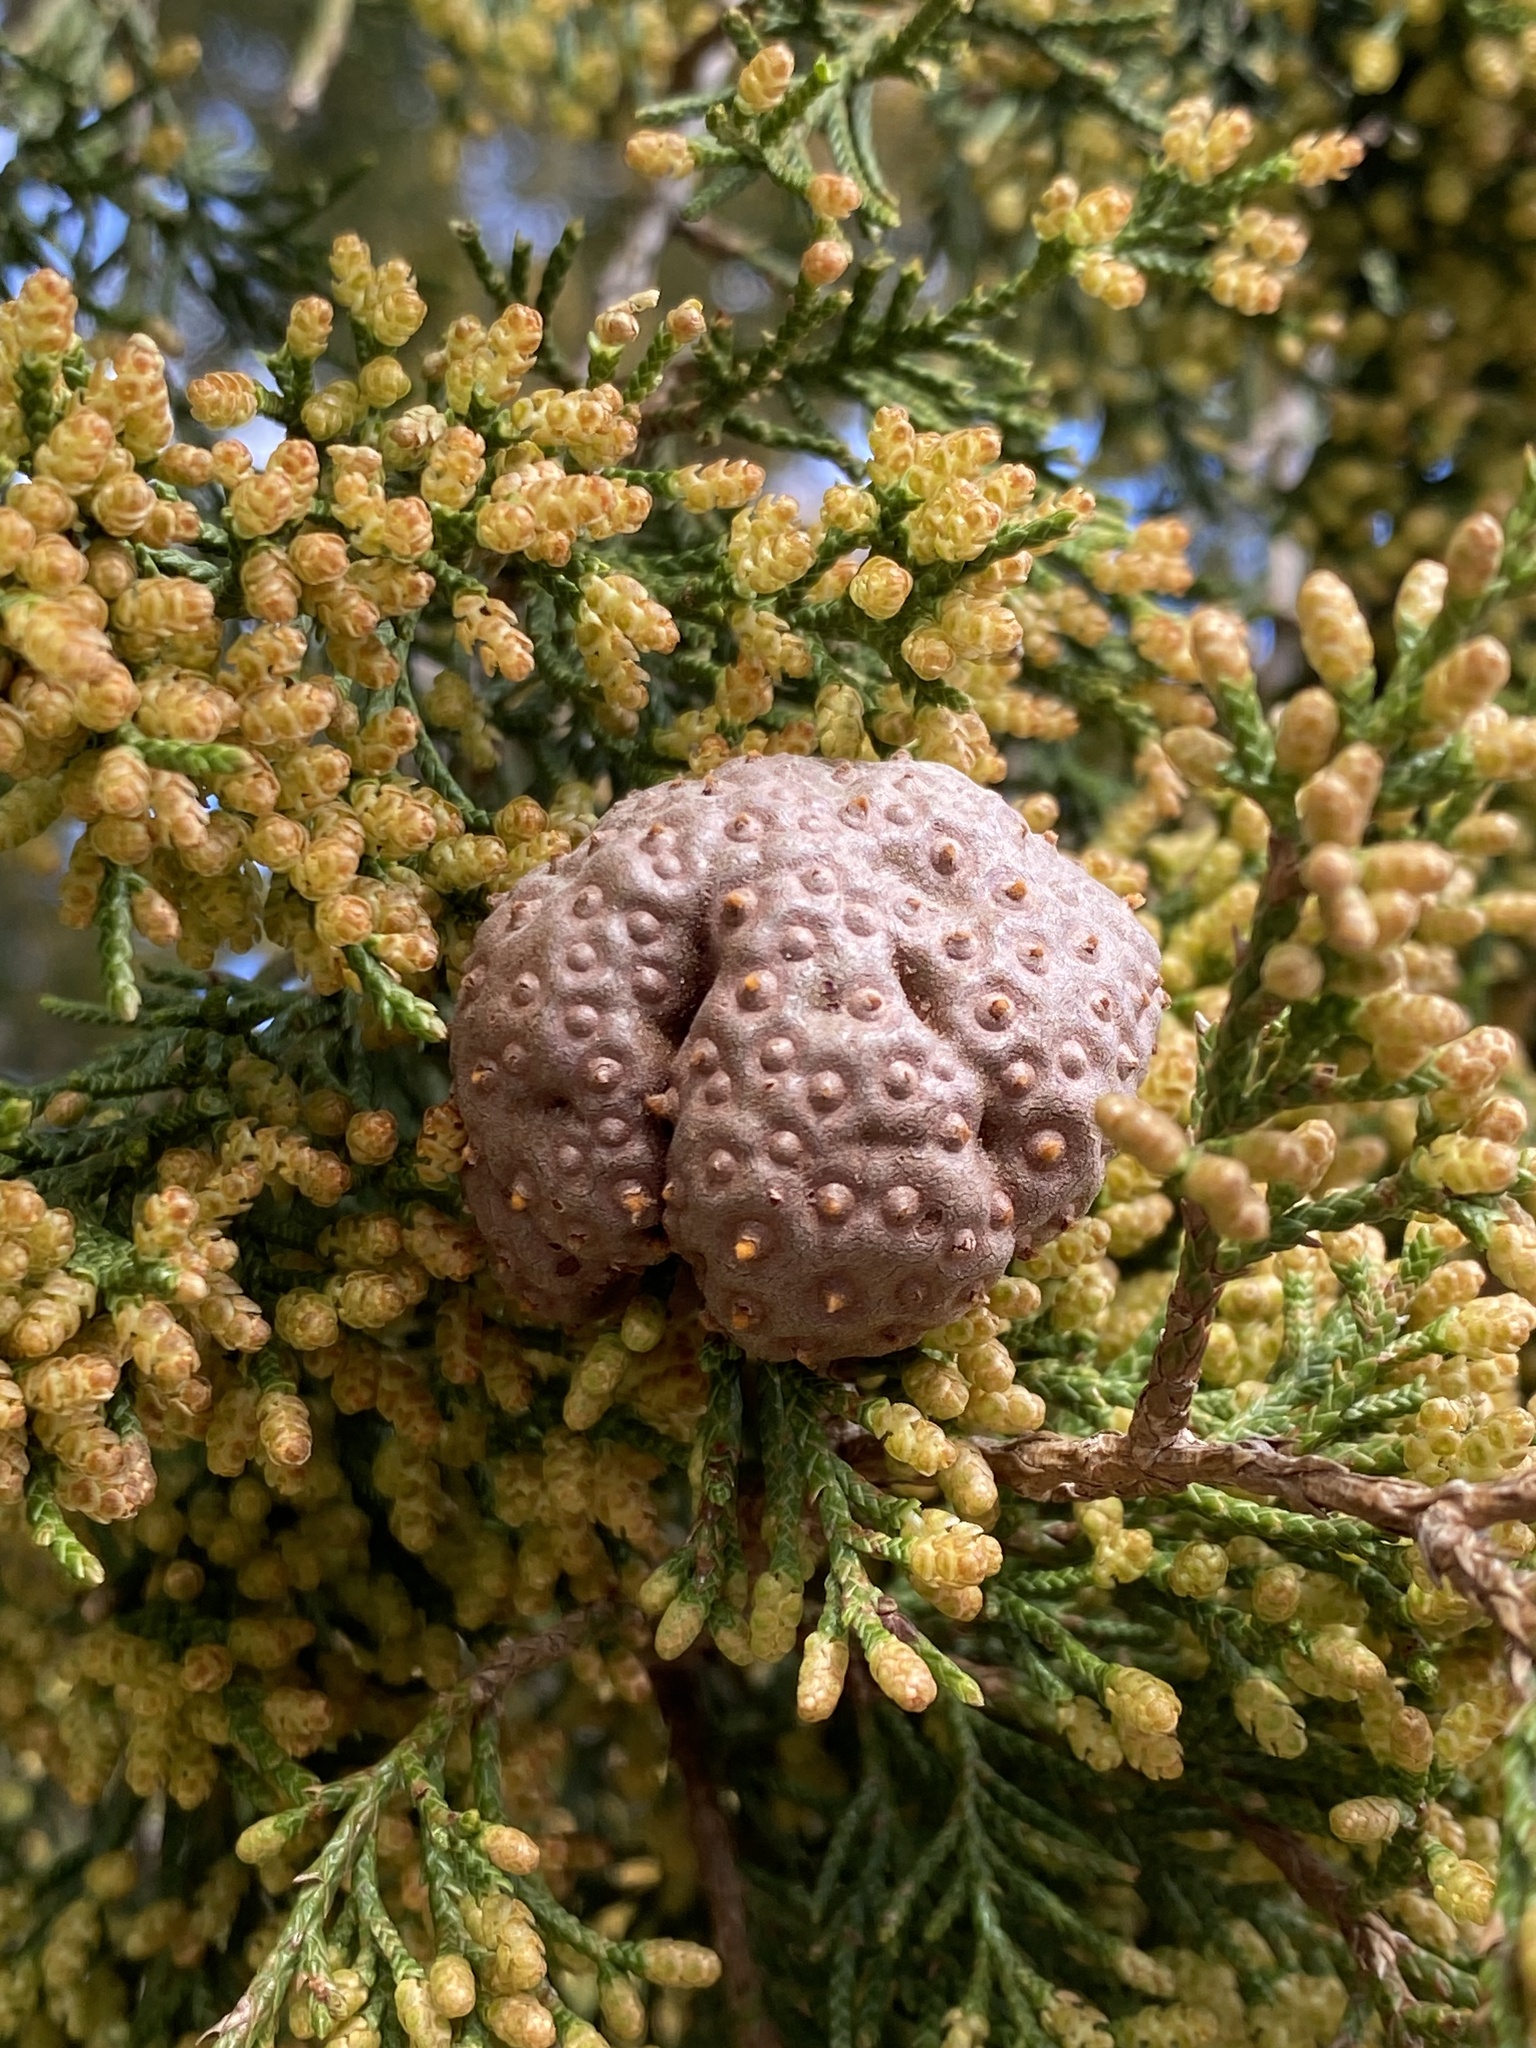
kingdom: Fungi
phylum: Basidiomycota
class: Pucciniomycetes
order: Pucciniales
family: Gymnosporangiaceae
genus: Gymnosporangium
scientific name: Gymnosporangium juniperi-virginianae
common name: Juniper-apple rust
